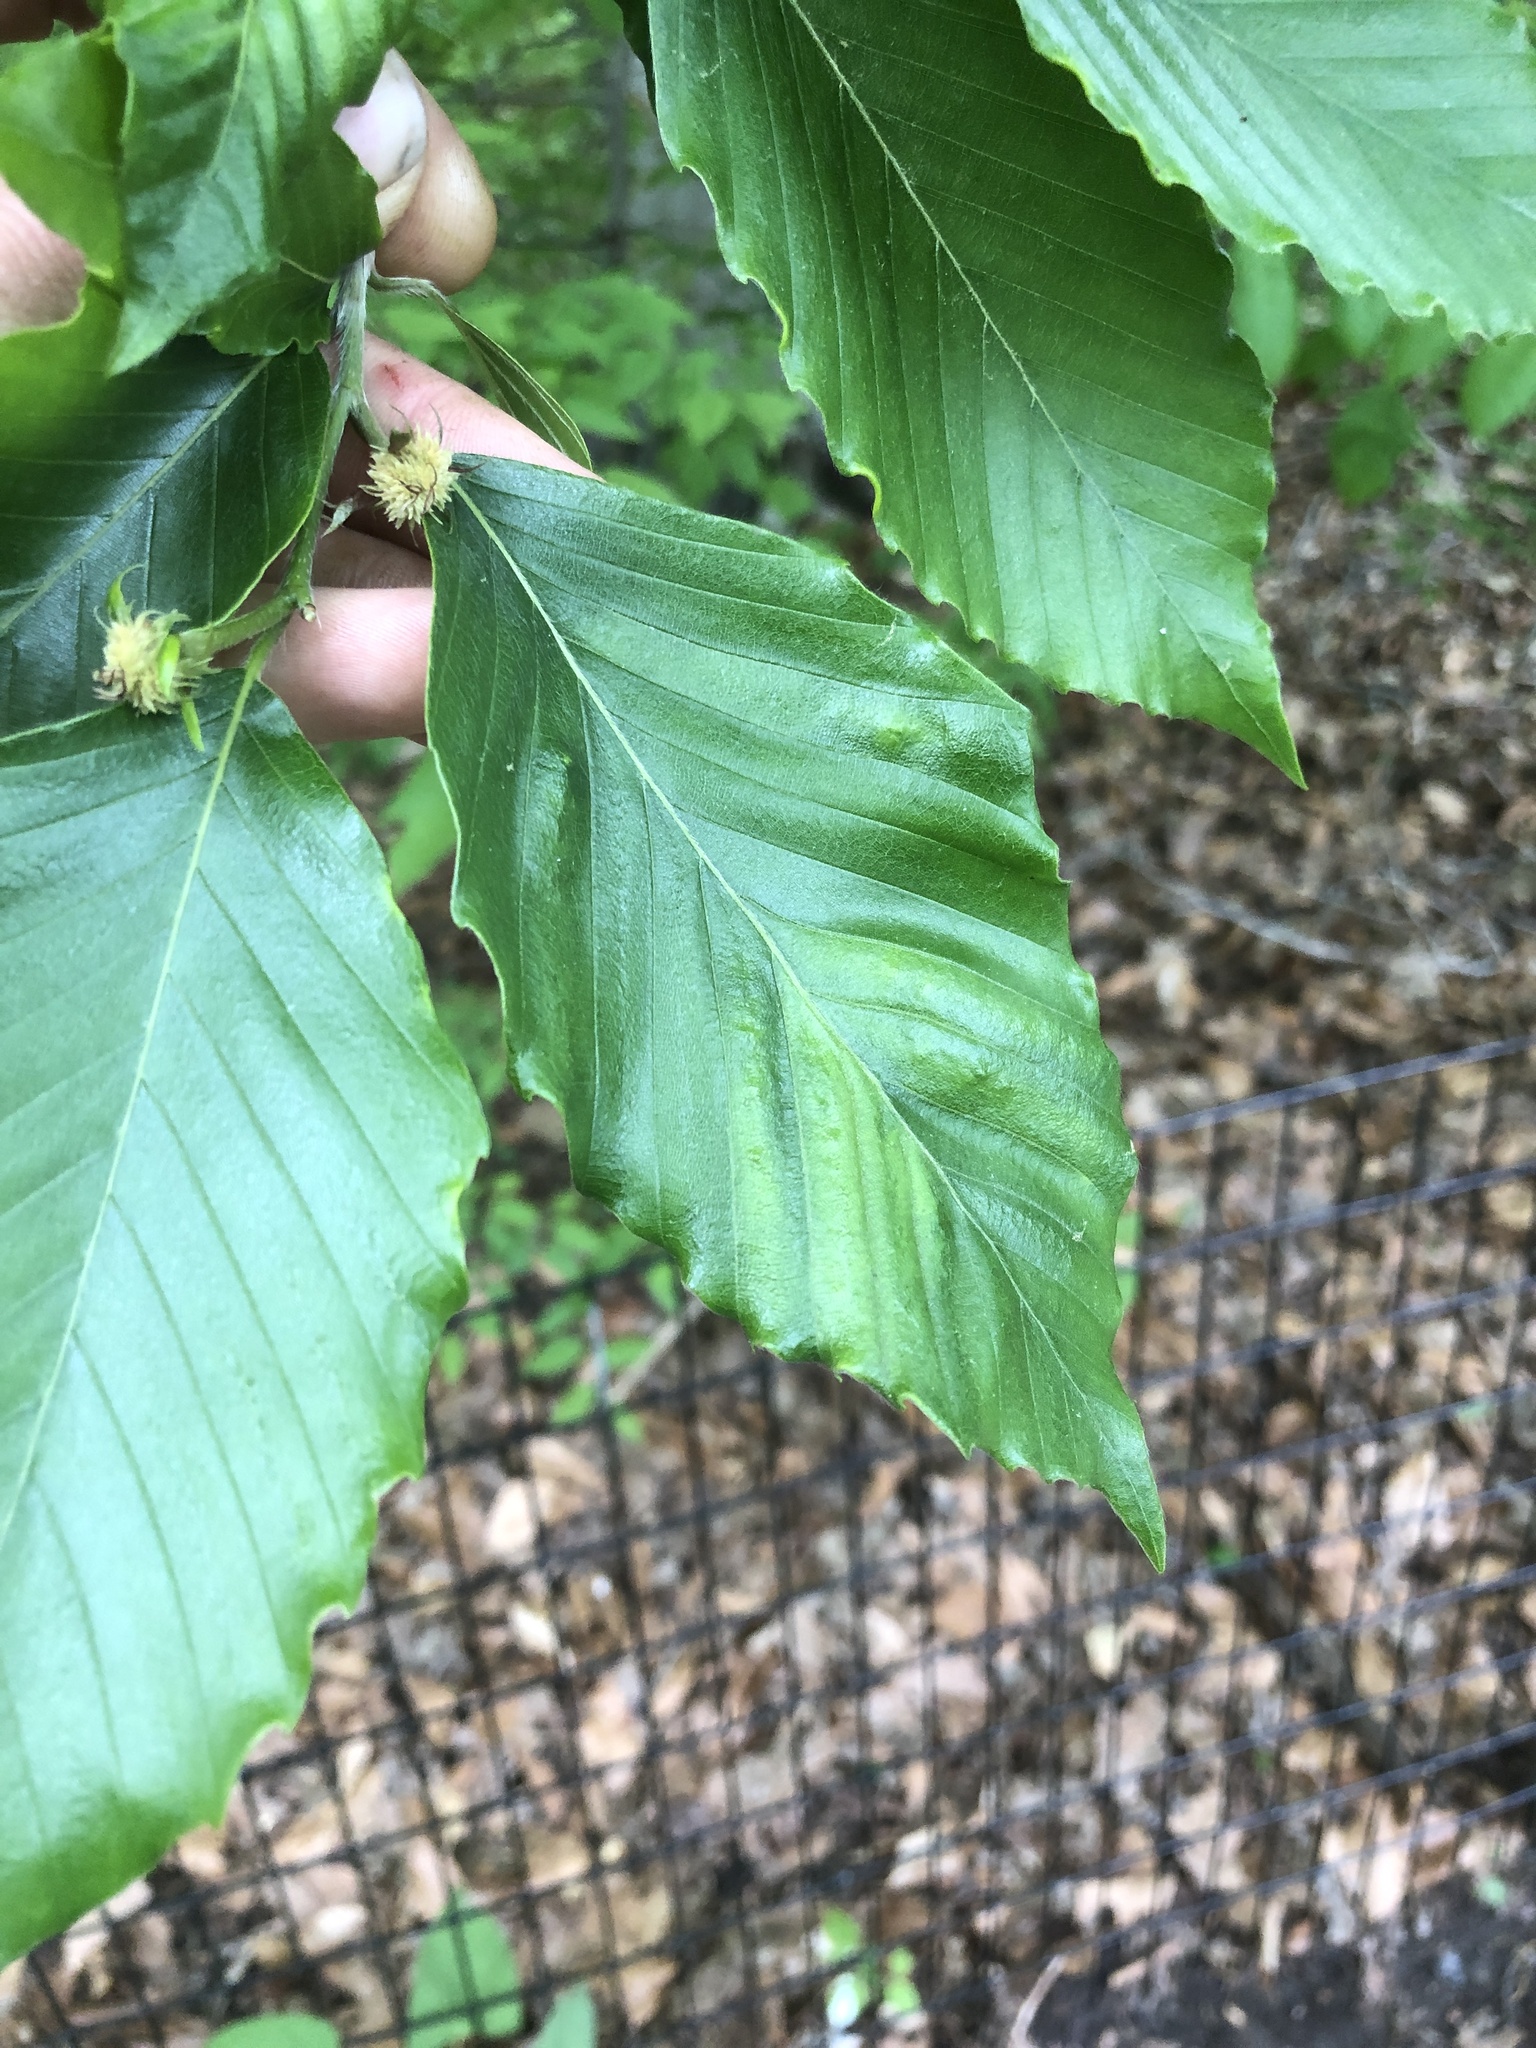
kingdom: Animalia
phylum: Nematoda
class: Chromadorea
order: Rhabditida
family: Anguinidae
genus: Litylenchus
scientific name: Litylenchus crenatae
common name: Beech leaf disease
